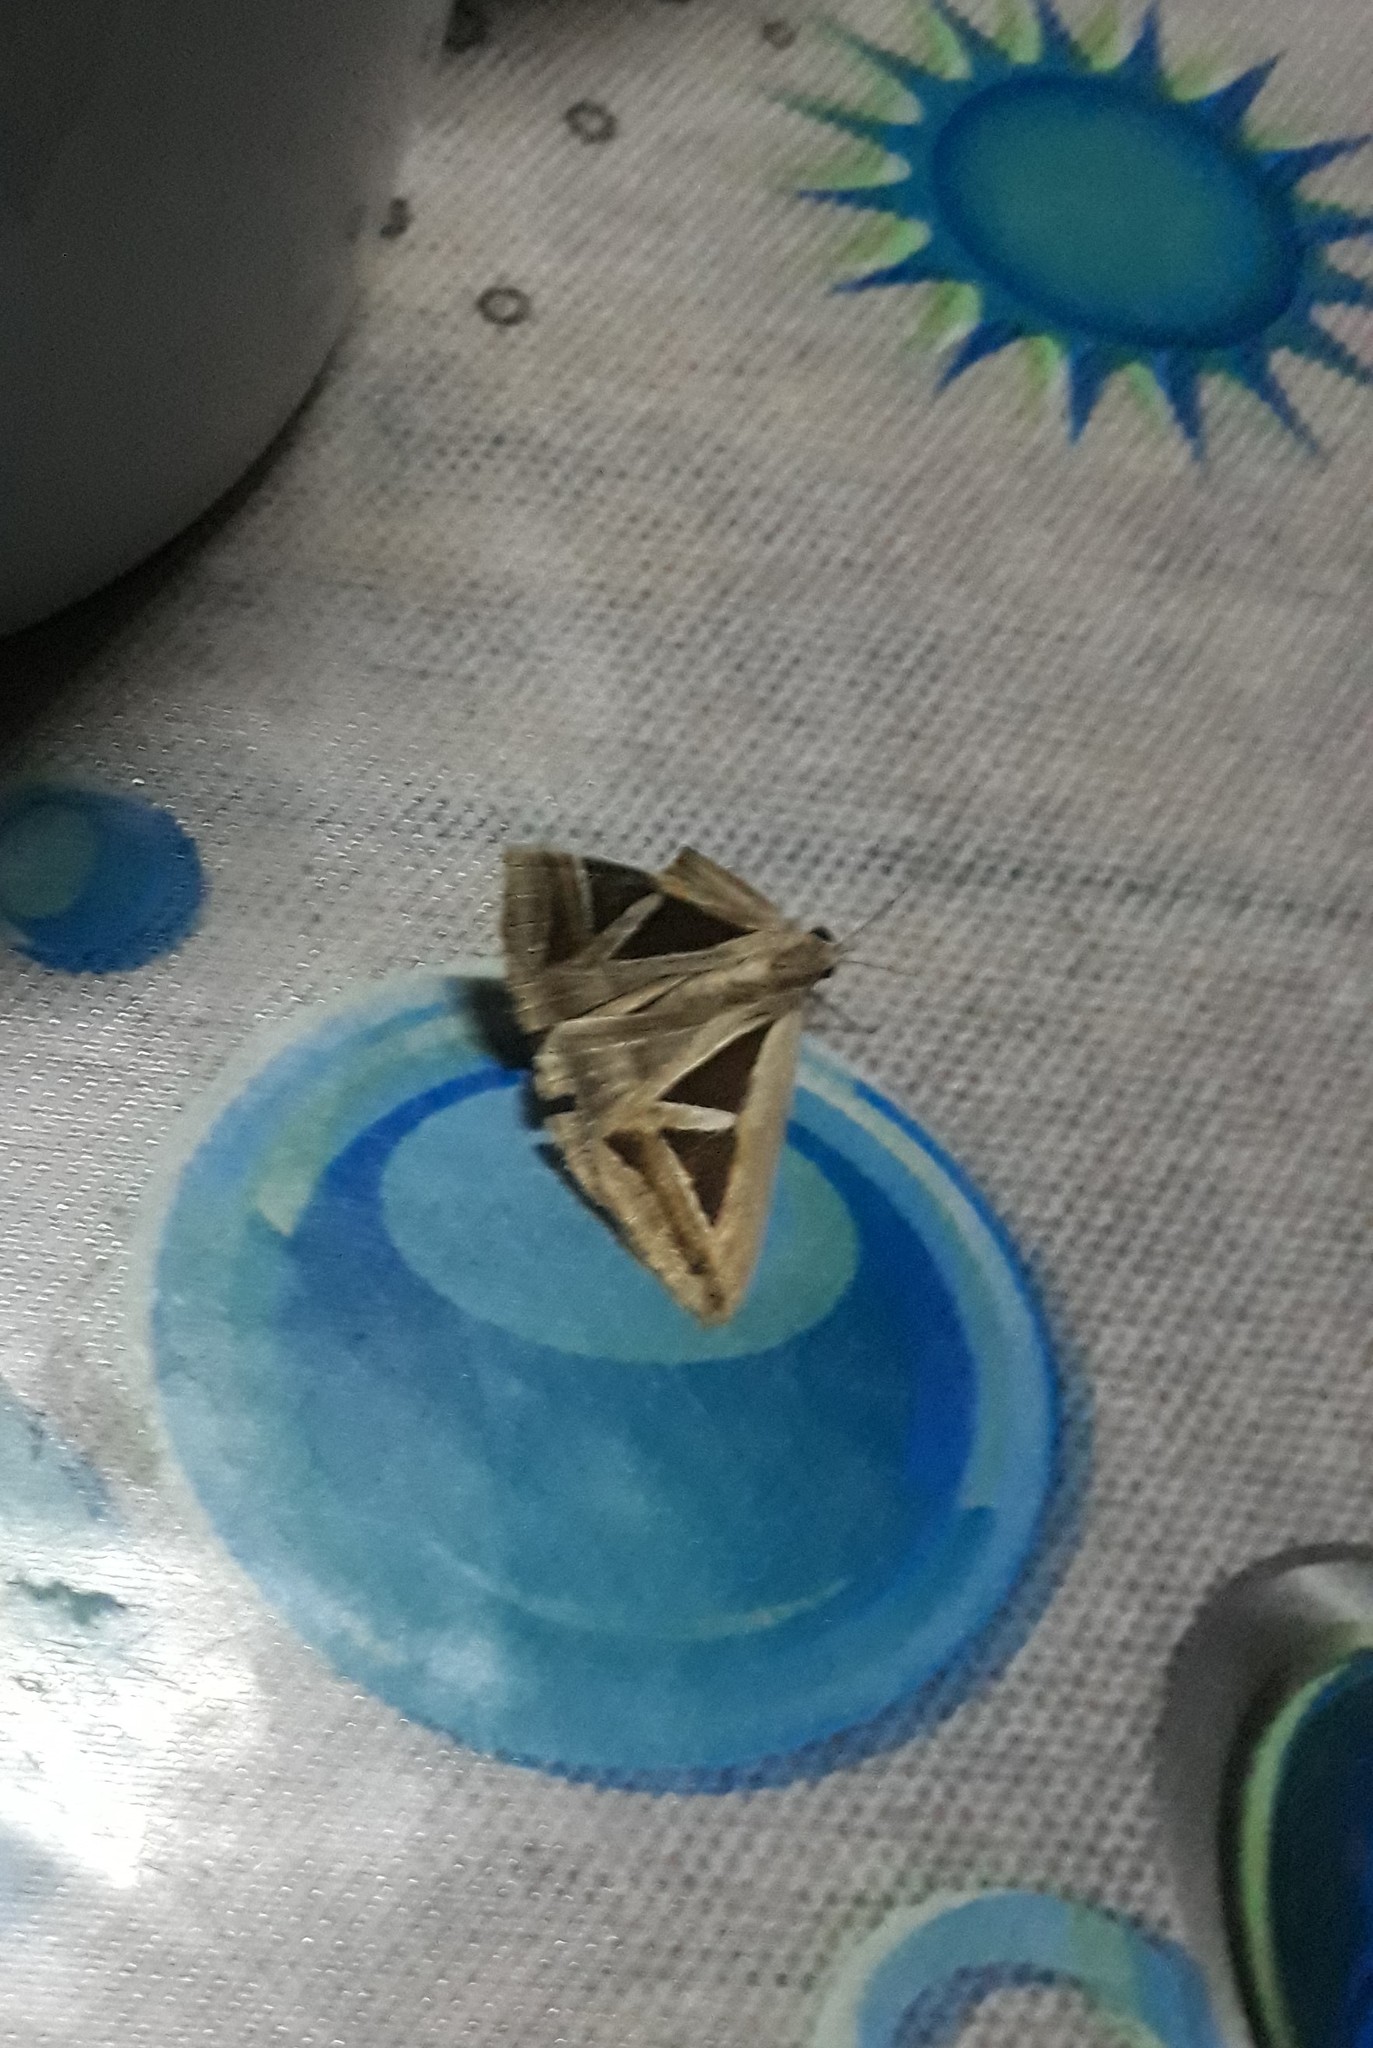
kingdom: Animalia
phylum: Arthropoda
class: Insecta
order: Lepidoptera
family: Erebidae
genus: Trigonodes
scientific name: Trigonodes hyppasia
